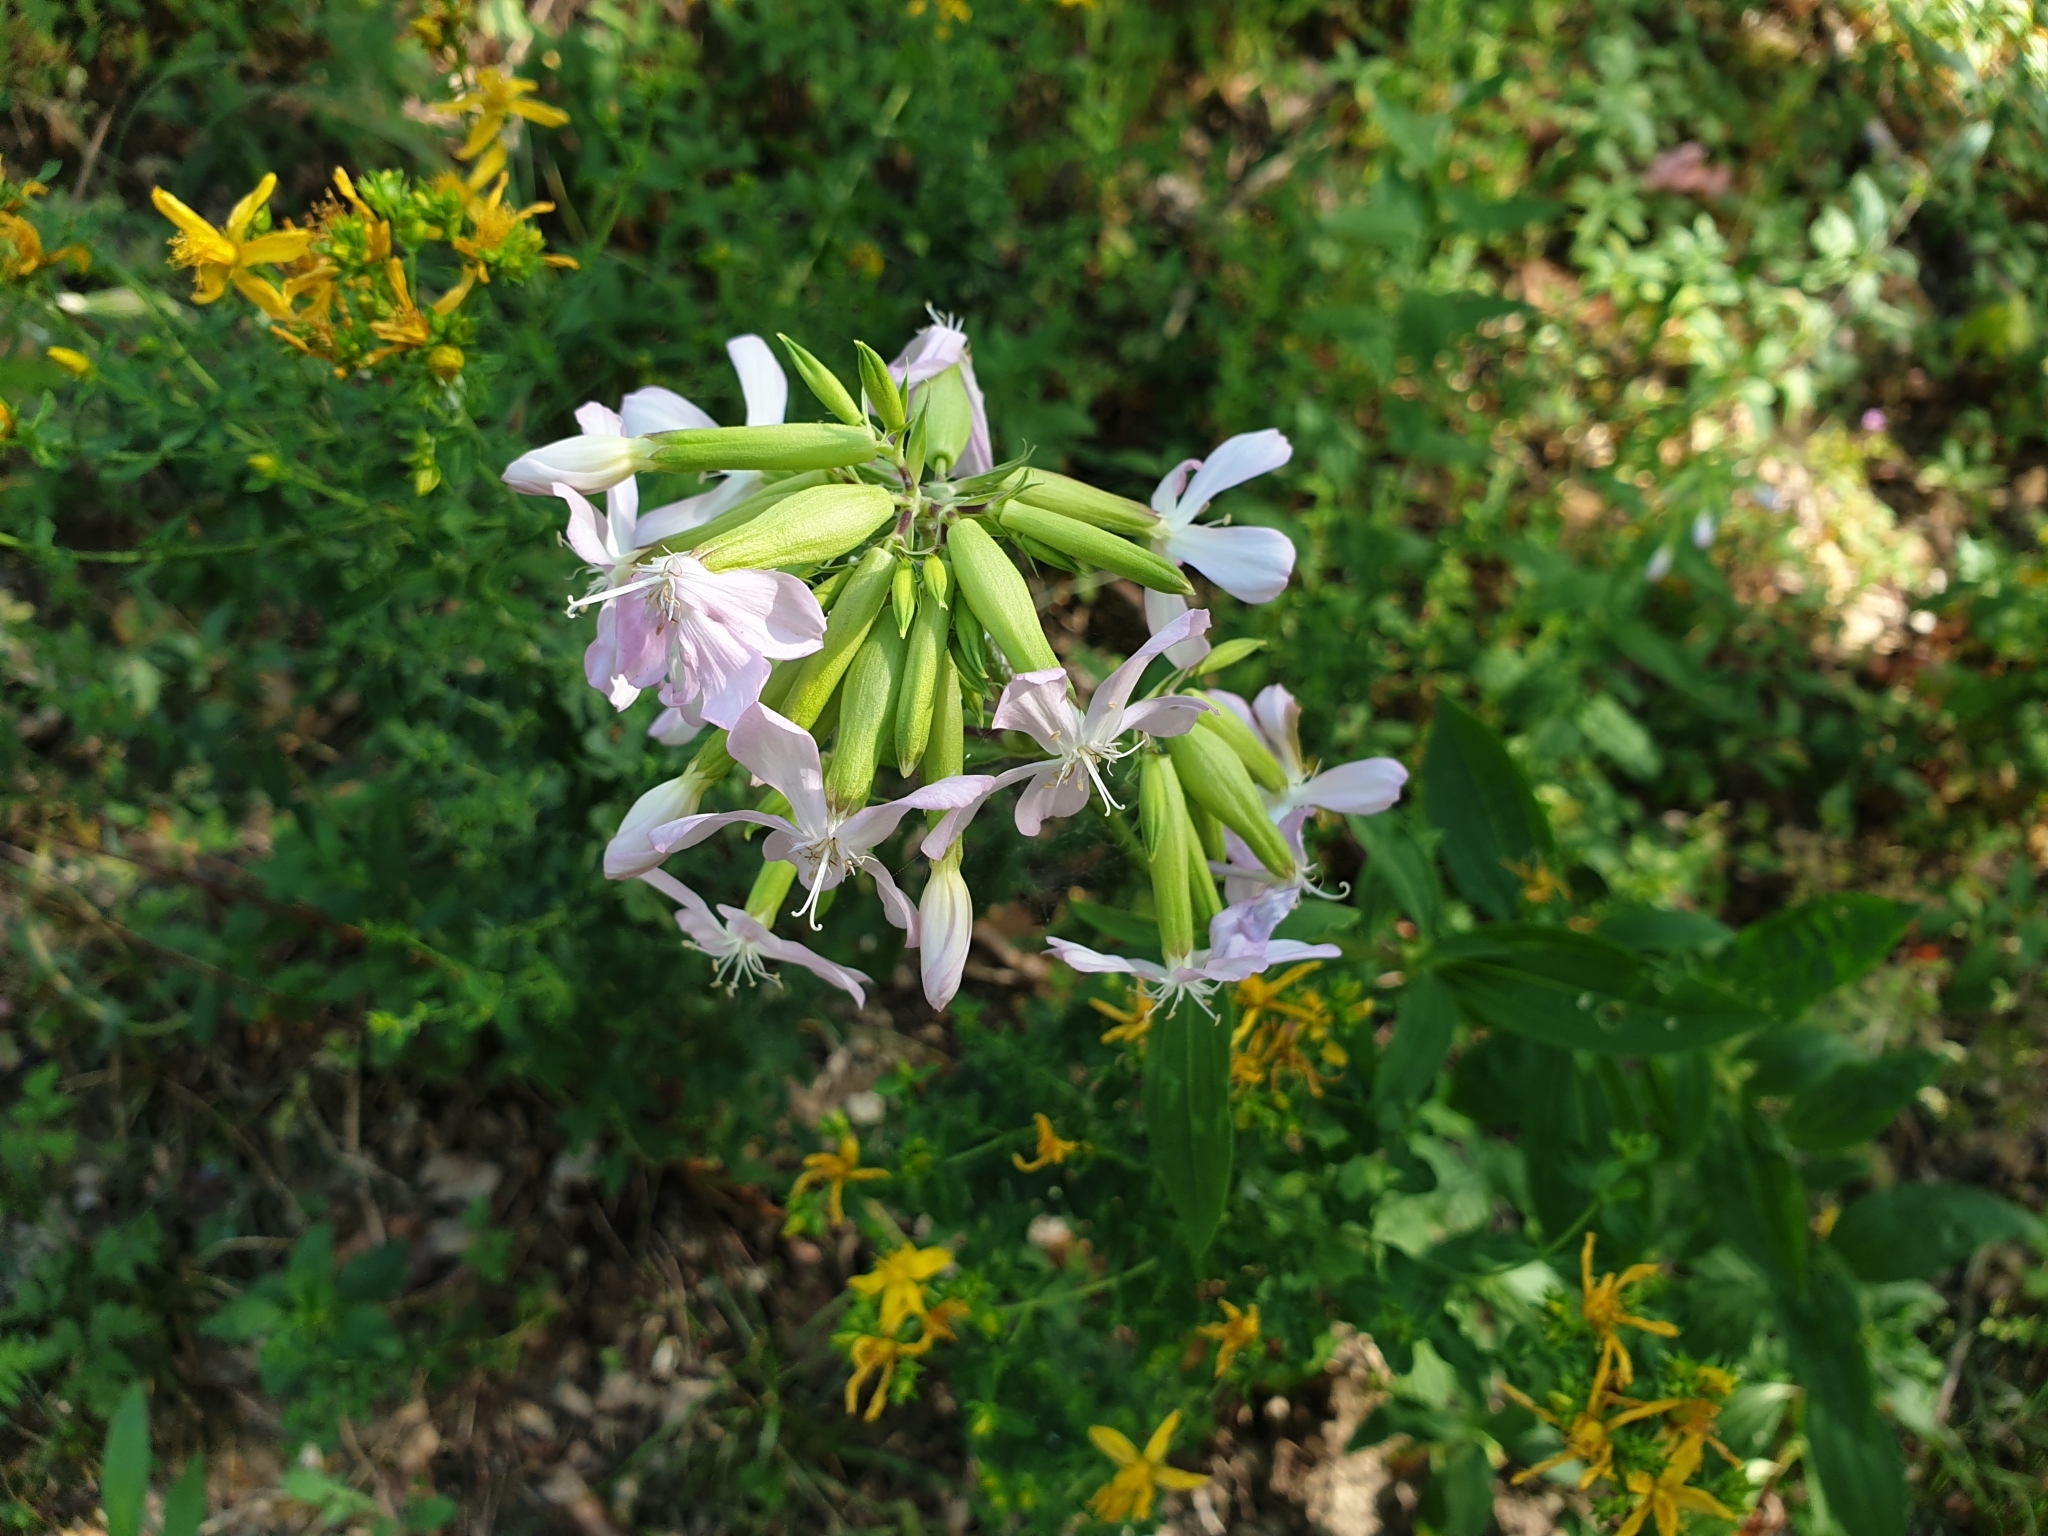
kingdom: Plantae
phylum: Tracheophyta
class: Magnoliopsida
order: Caryophyllales
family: Caryophyllaceae
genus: Saponaria
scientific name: Saponaria officinalis
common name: Soapwort
